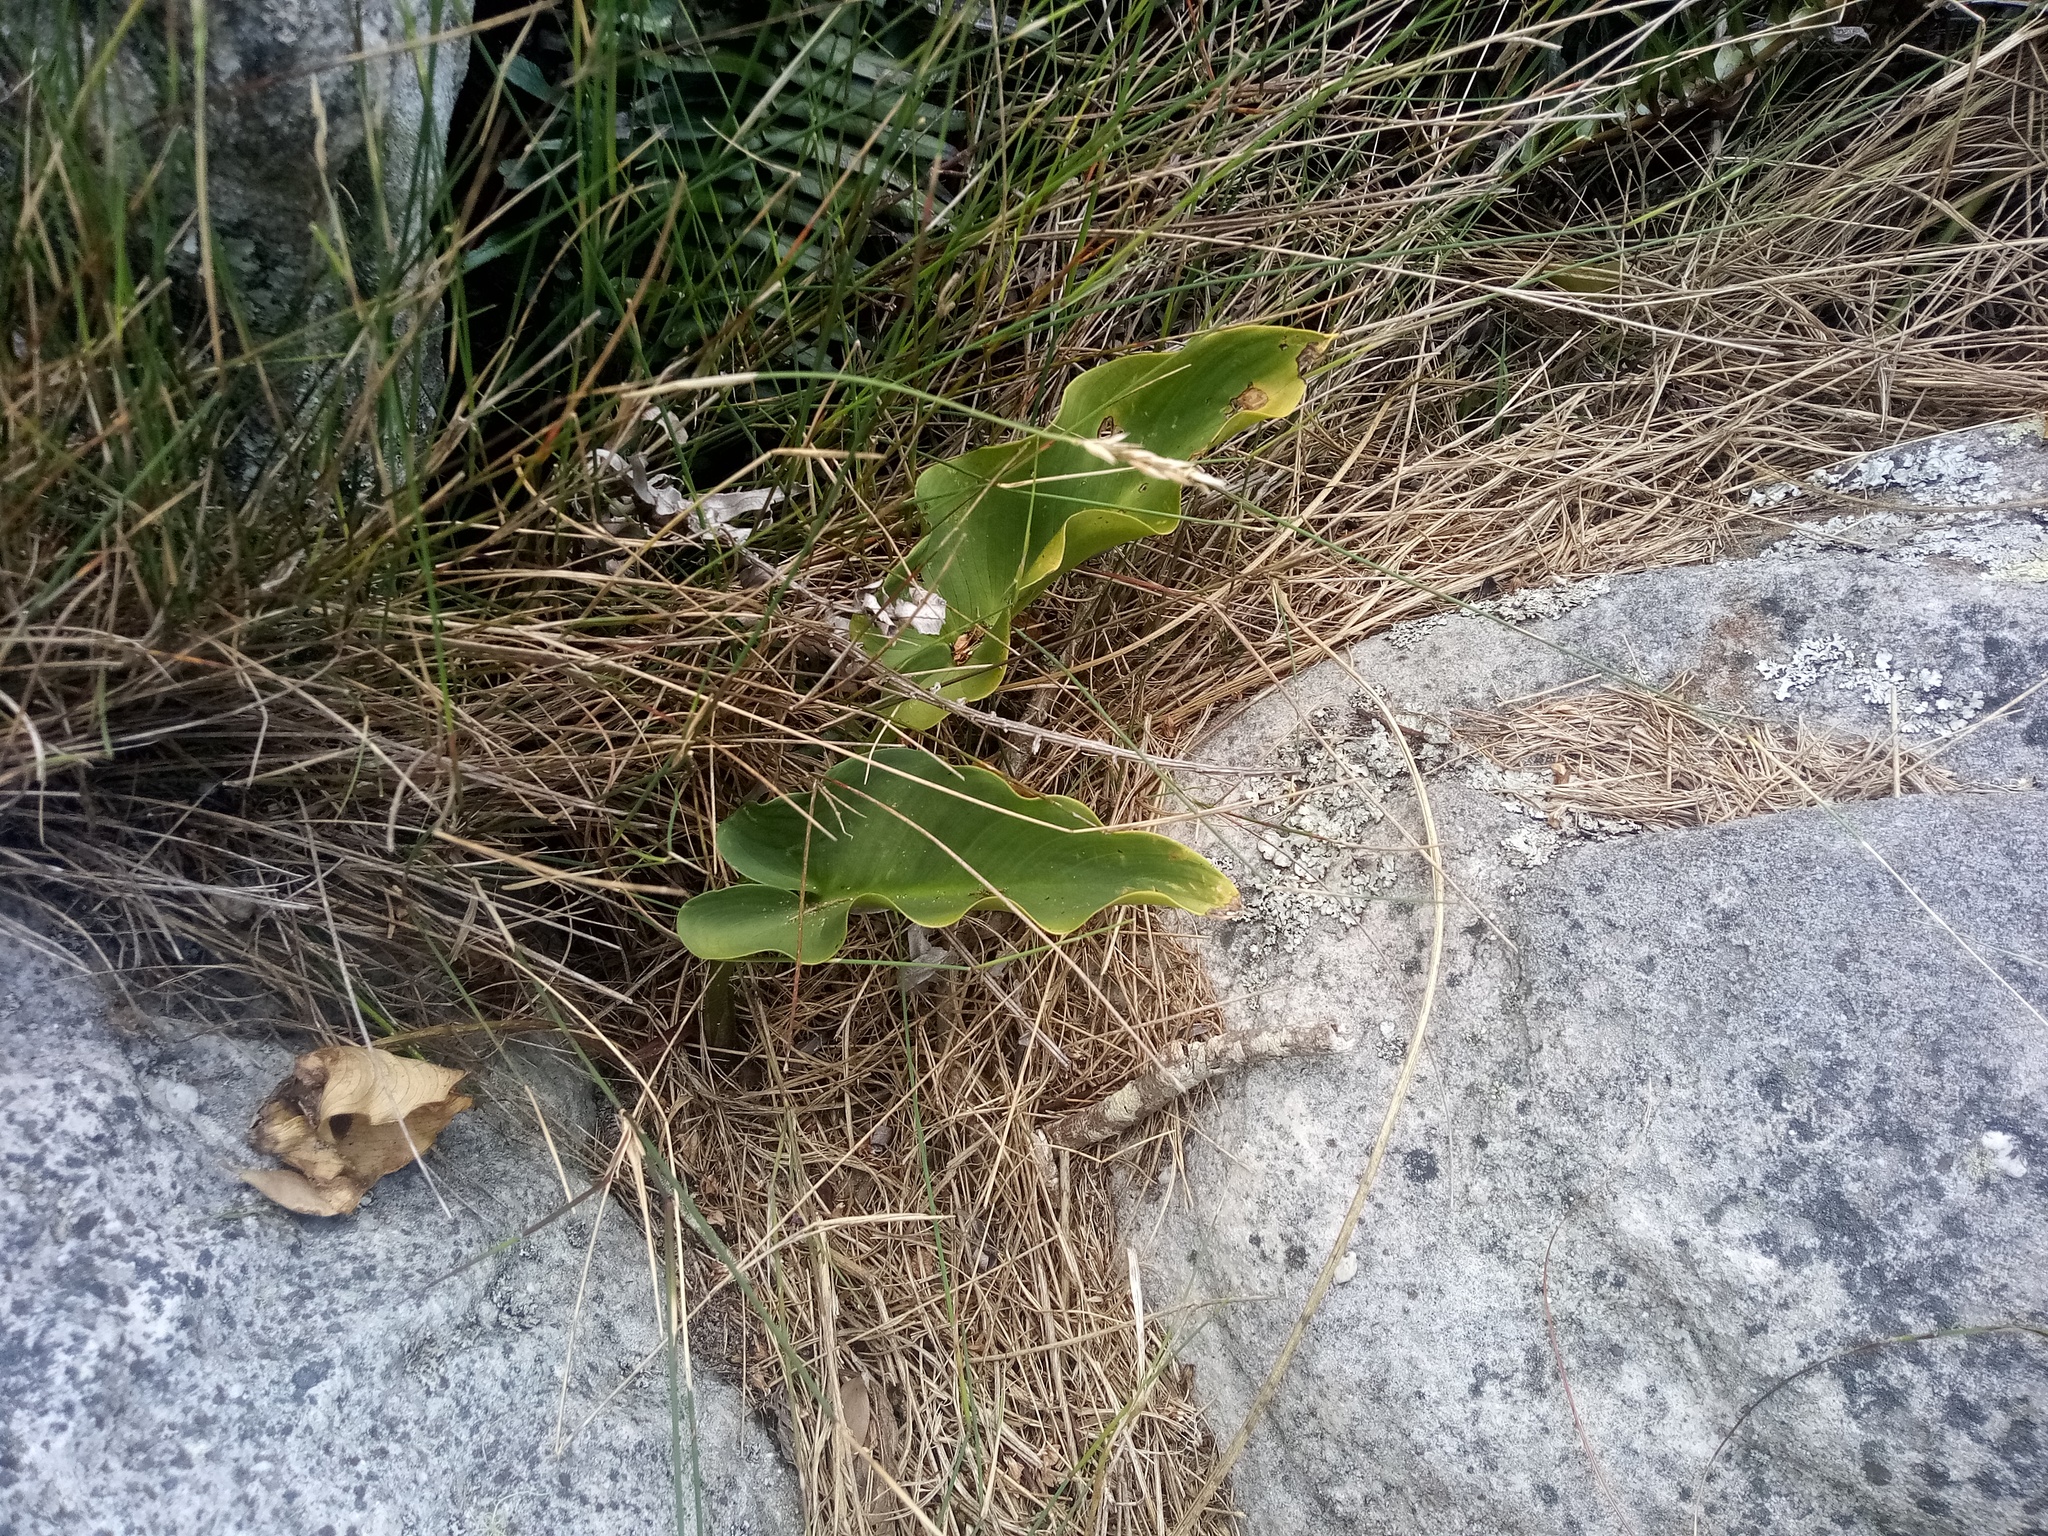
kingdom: Plantae
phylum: Tracheophyta
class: Liliopsida
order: Alismatales
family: Araceae
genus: Zantedeschia
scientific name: Zantedeschia aethiopica
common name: Altar-lily
